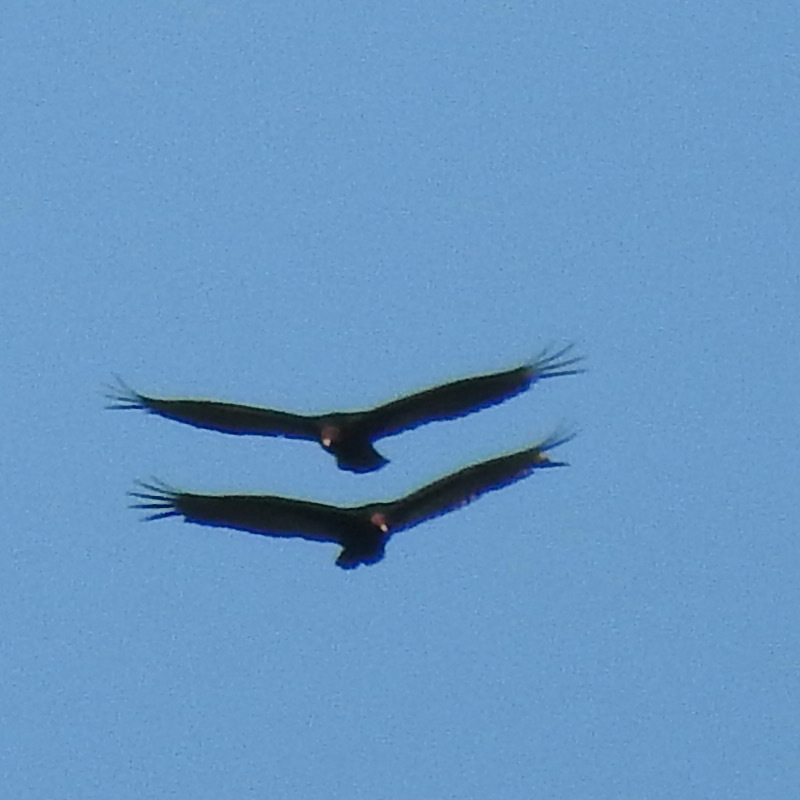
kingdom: Animalia
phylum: Chordata
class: Aves
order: Accipitriformes
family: Cathartidae
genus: Cathartes
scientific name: Cathartes aura
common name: Turkey vulture
